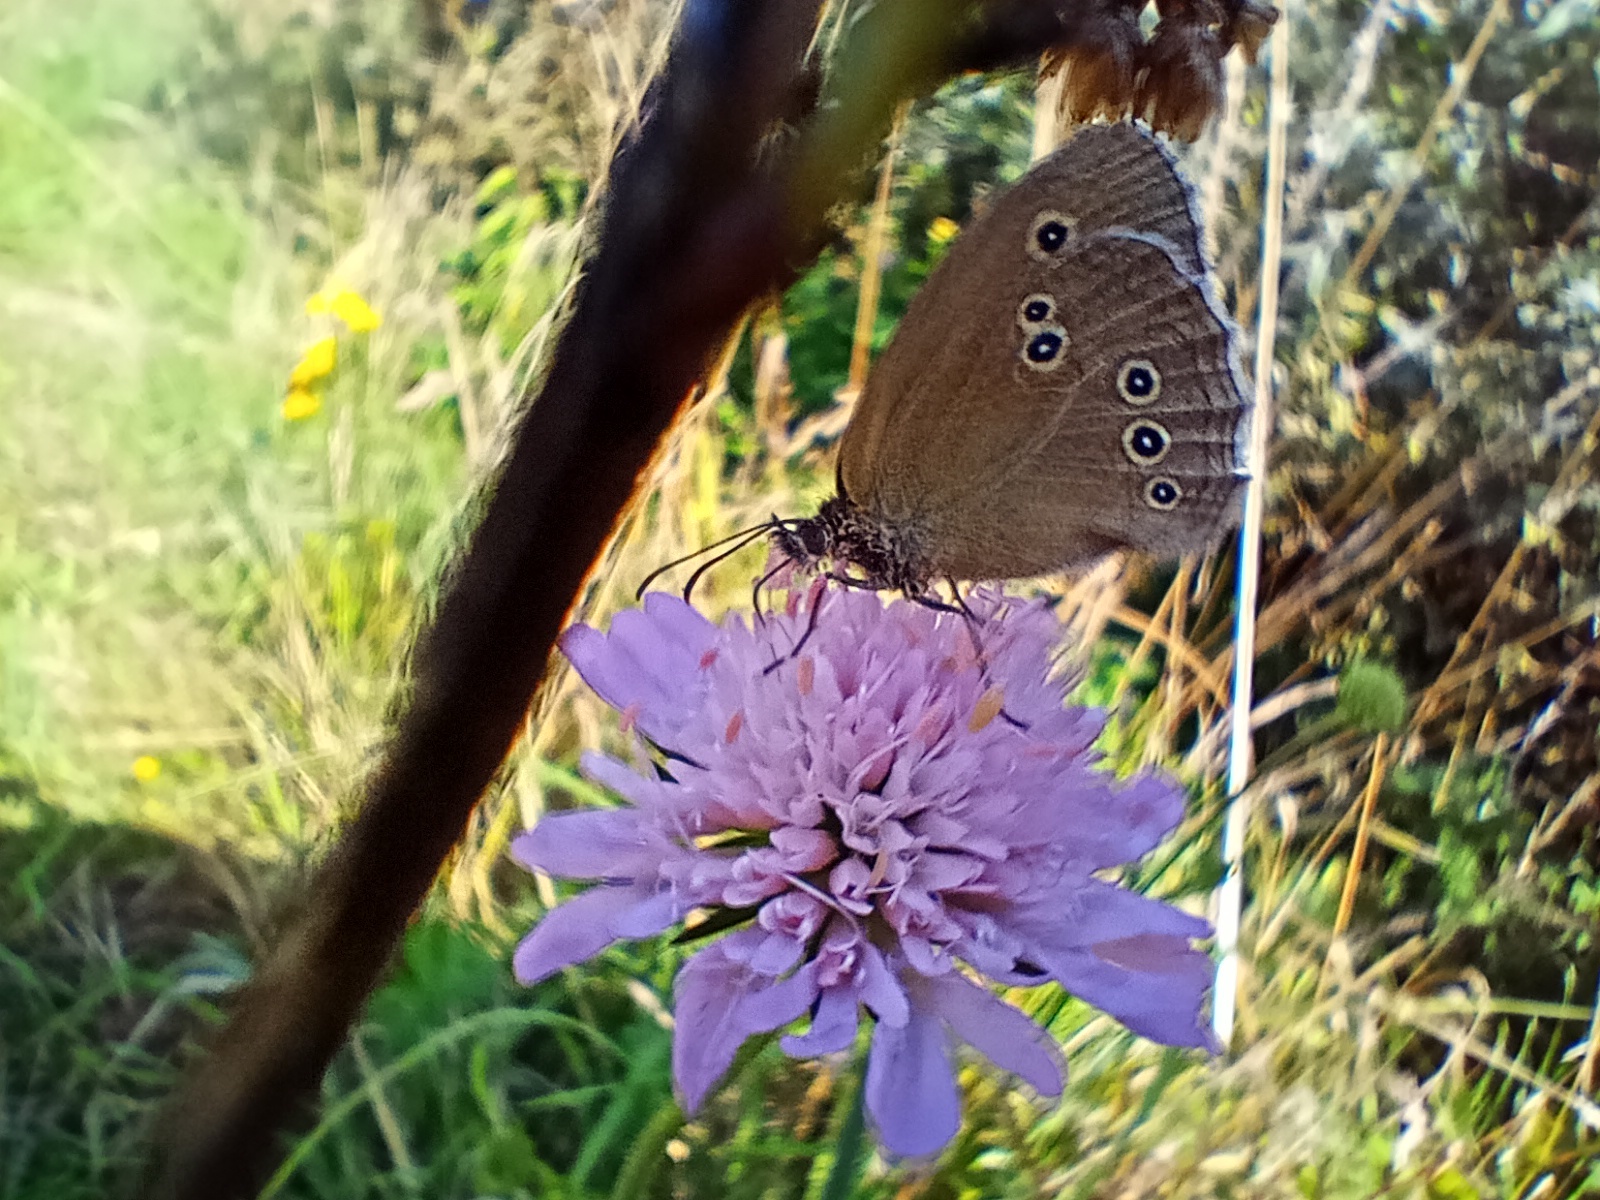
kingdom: Animalia
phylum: Arthropoda
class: Insecta
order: Lepidoptera
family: Nymphalidae
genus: Aphantopus
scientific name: Aphantopus hyperantus
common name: Ringlet
